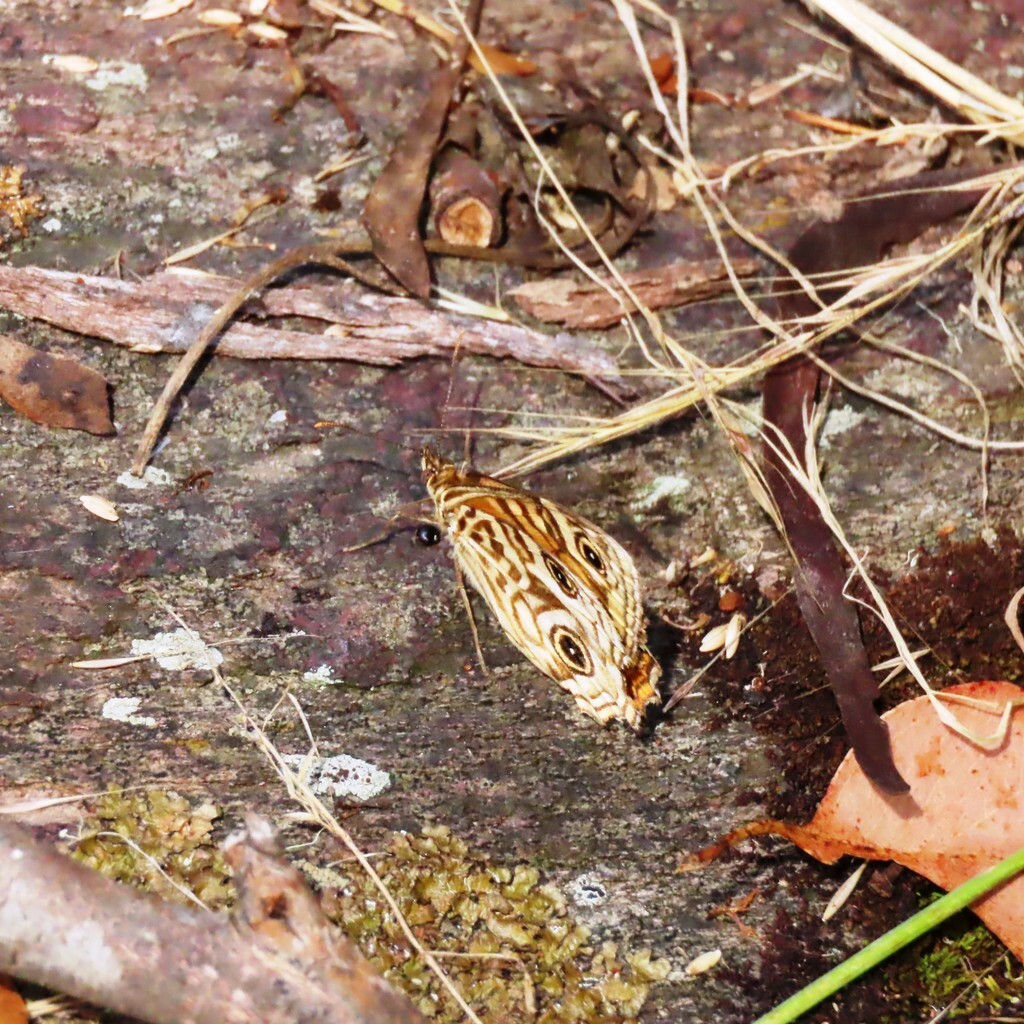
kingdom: Animalia
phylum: Arthropoda
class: Insecta
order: Lepidoptera
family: Nymphalidae
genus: Geitoneura
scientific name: Geitoneura acantha
